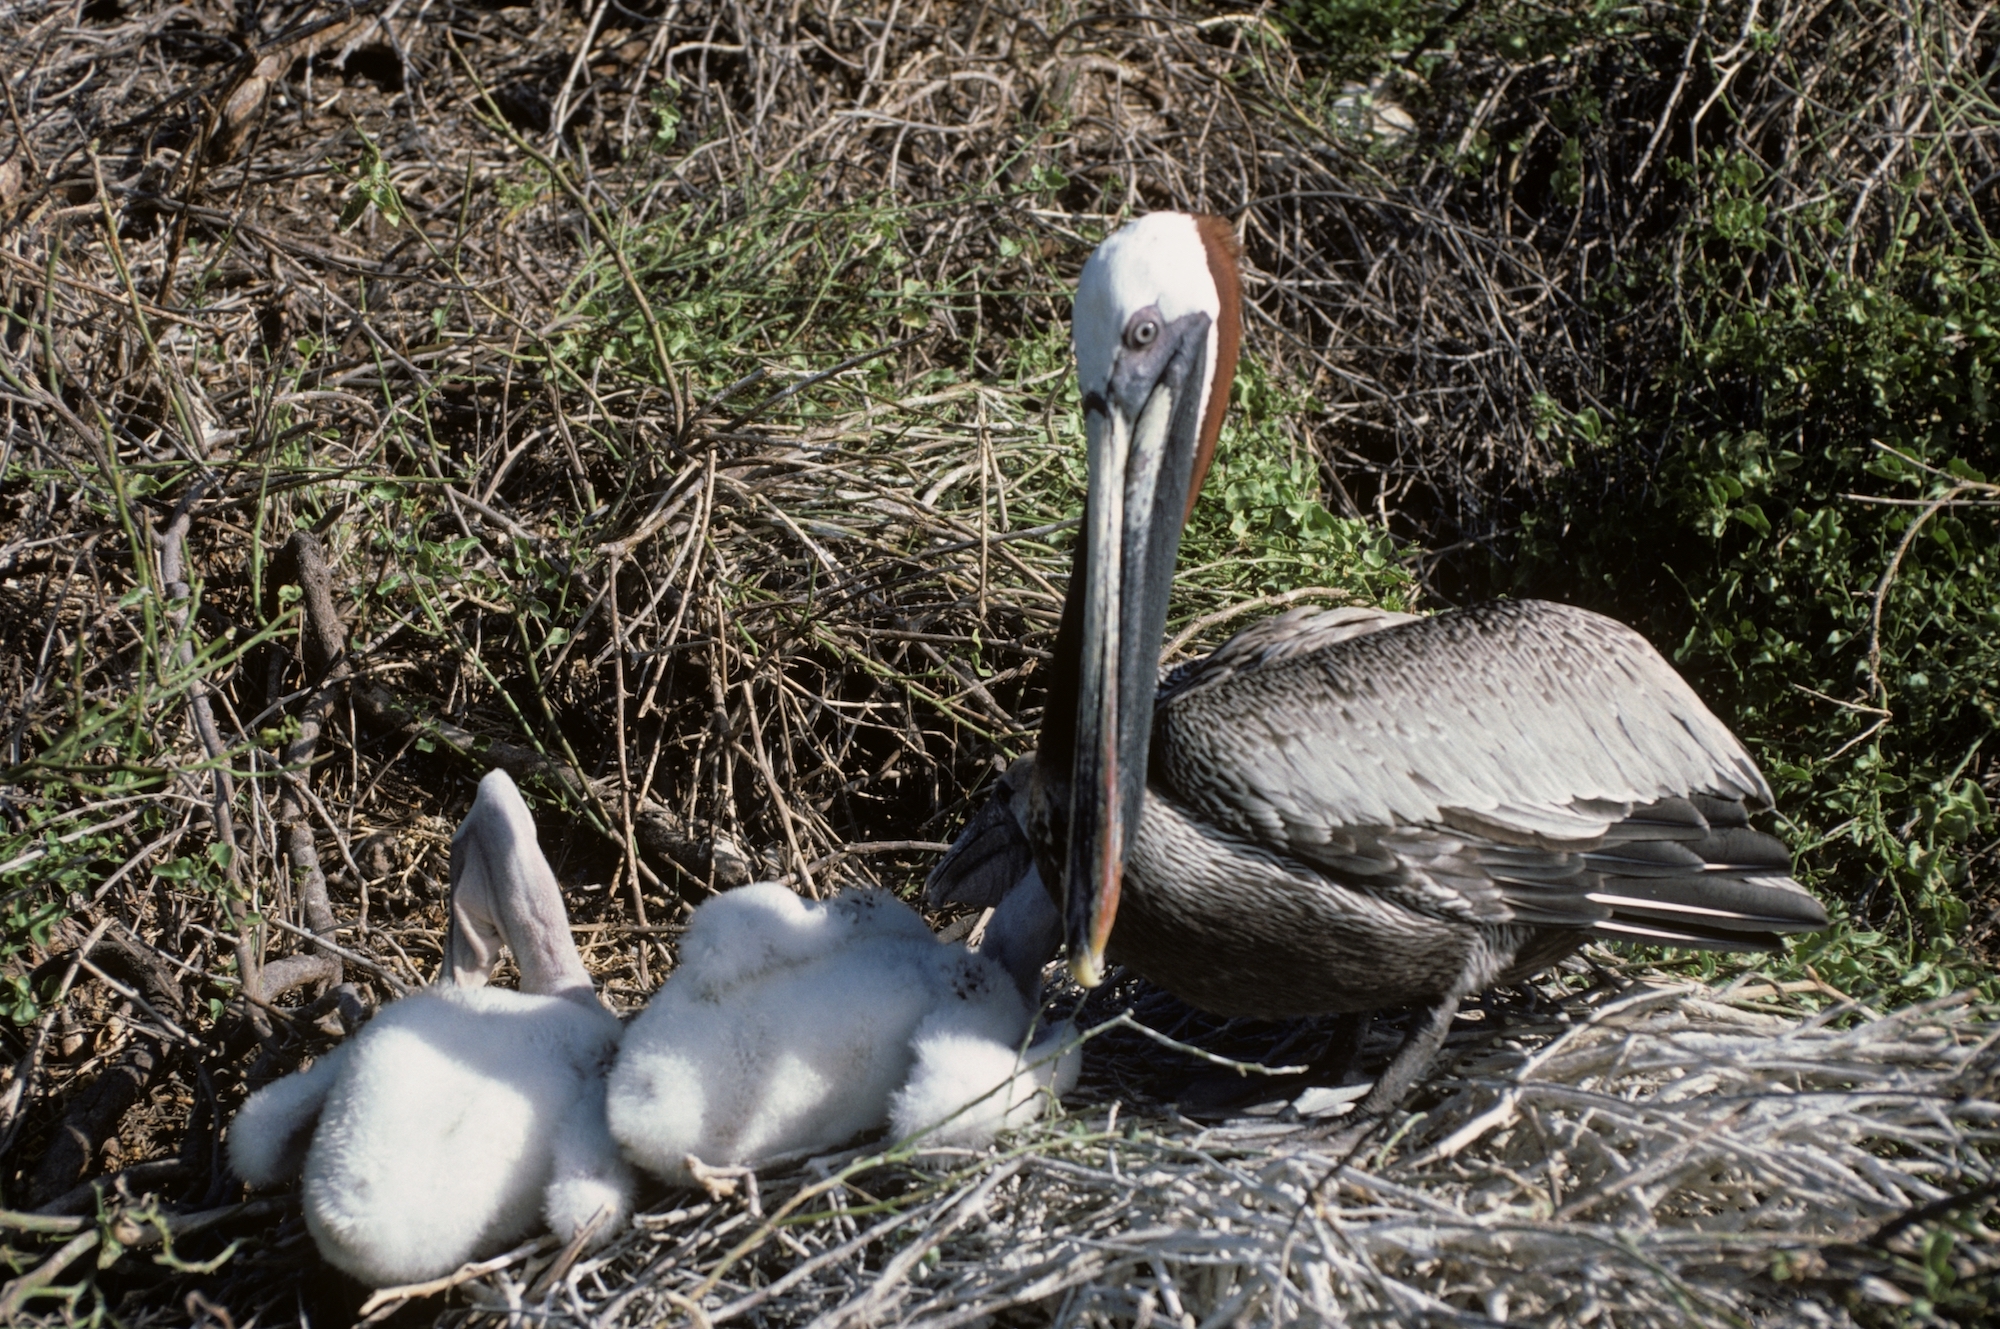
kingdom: Animalia
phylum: Chordata
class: Aves
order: Pelecaniformes
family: Pelecanidae
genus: Pelecanus
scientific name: Pelecanus occidentalis
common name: Brown pelican
